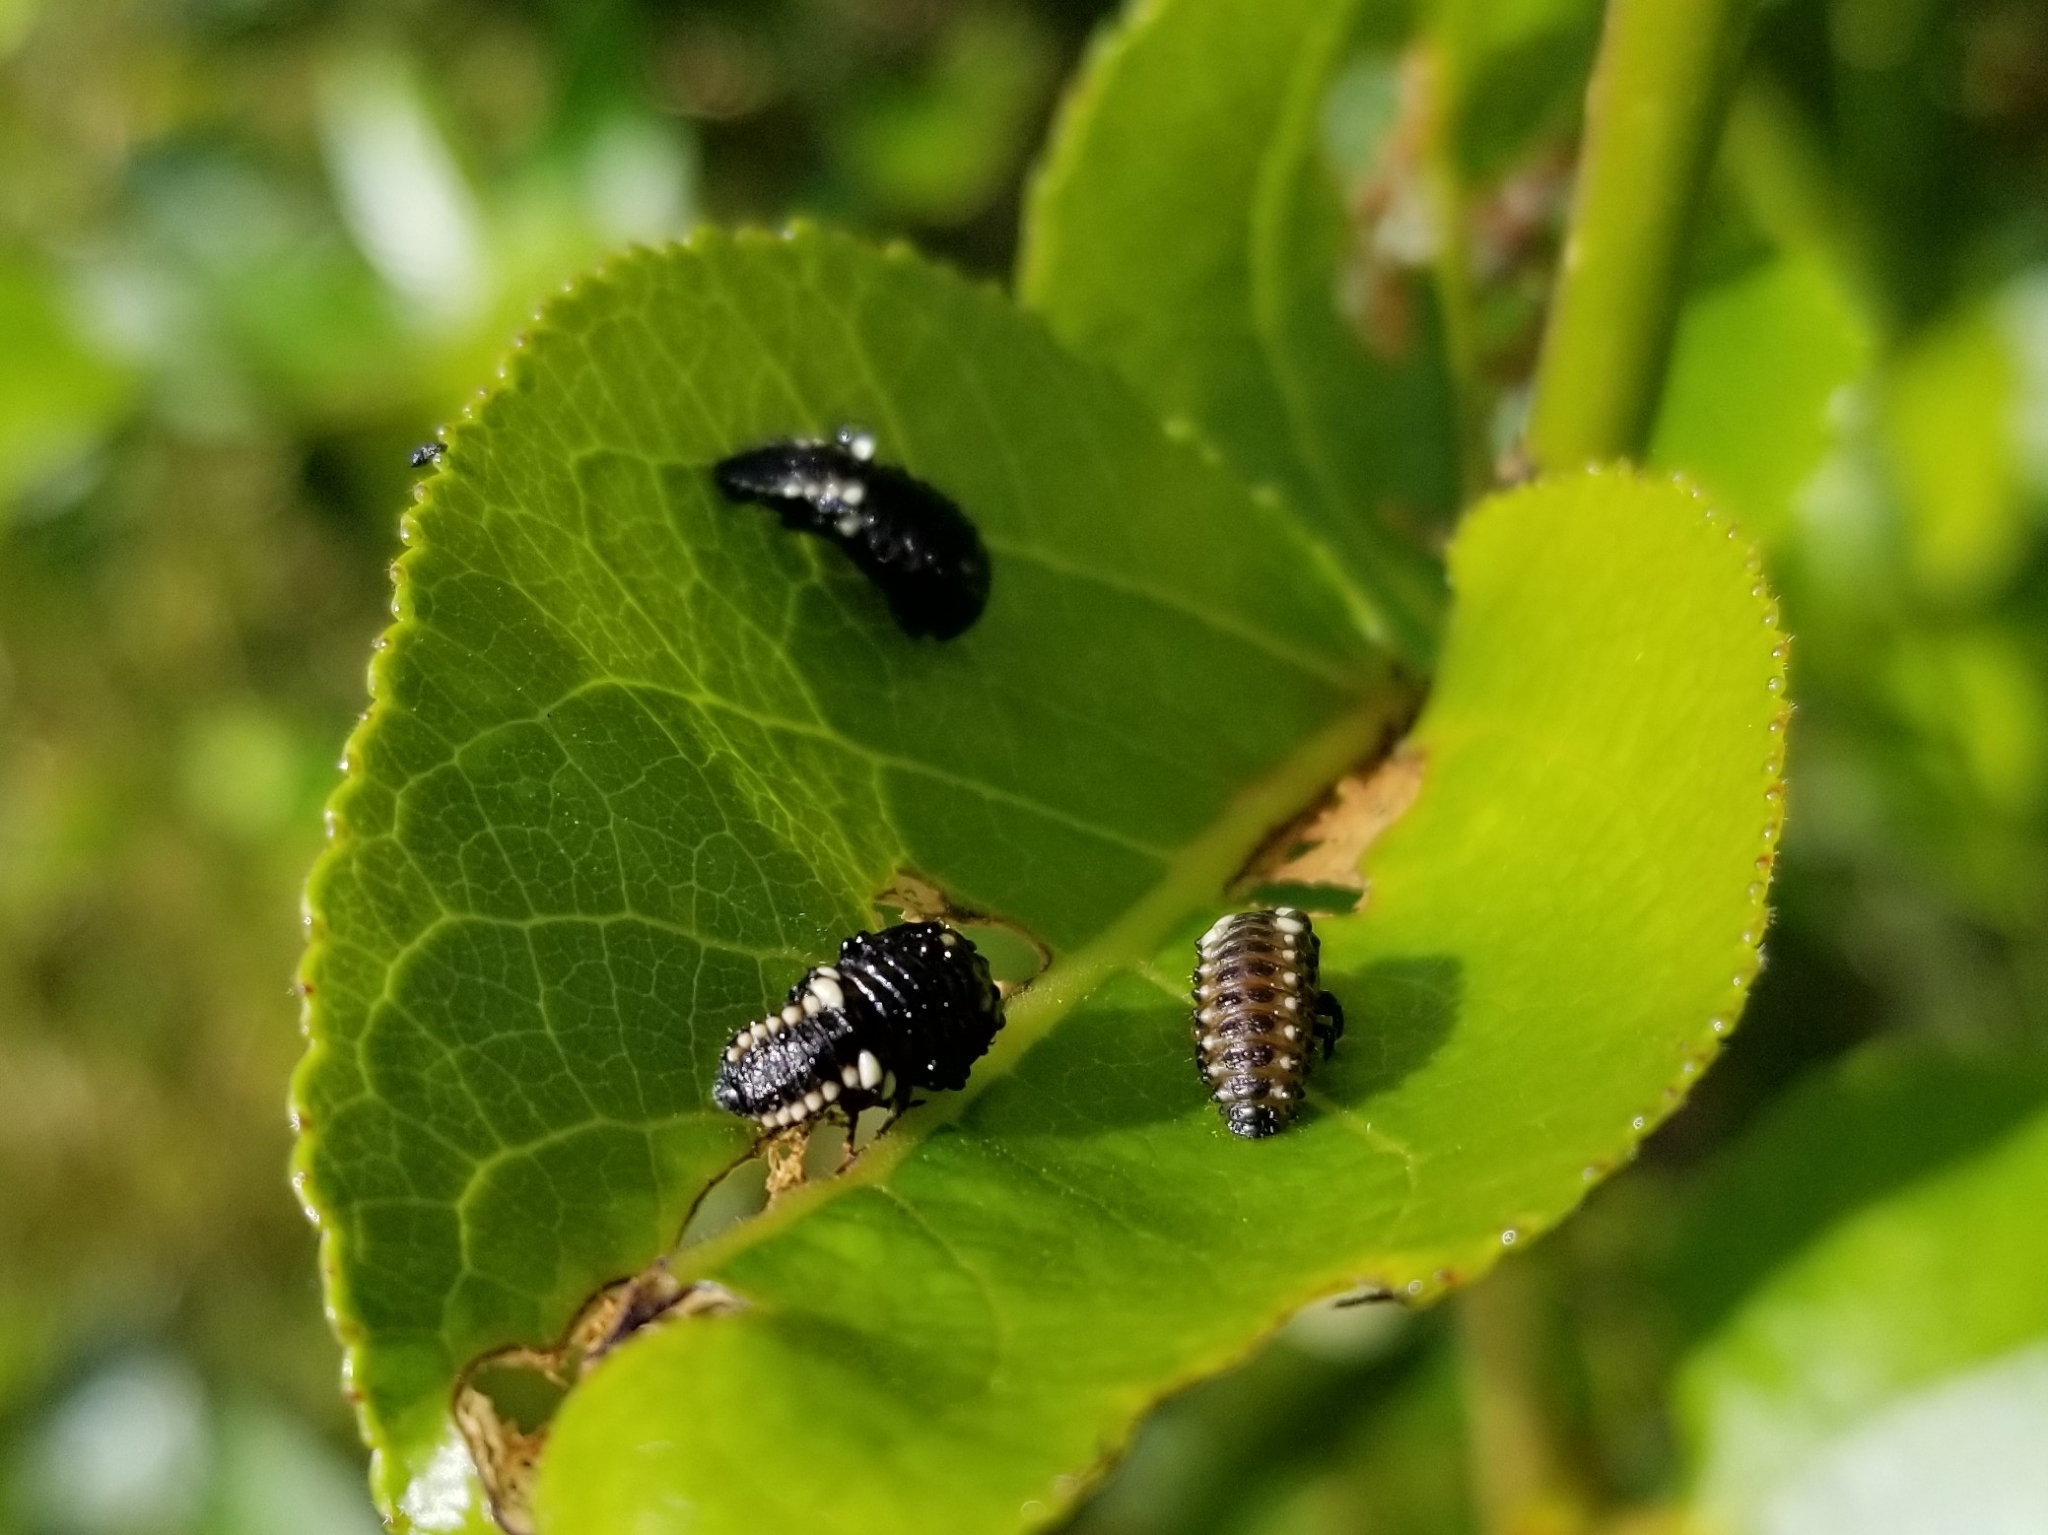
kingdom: Animalia
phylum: Arthropoda
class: Insecta
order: Coleoptera
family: Chrysomelidae
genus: Chrysomela
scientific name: Chrysomela
